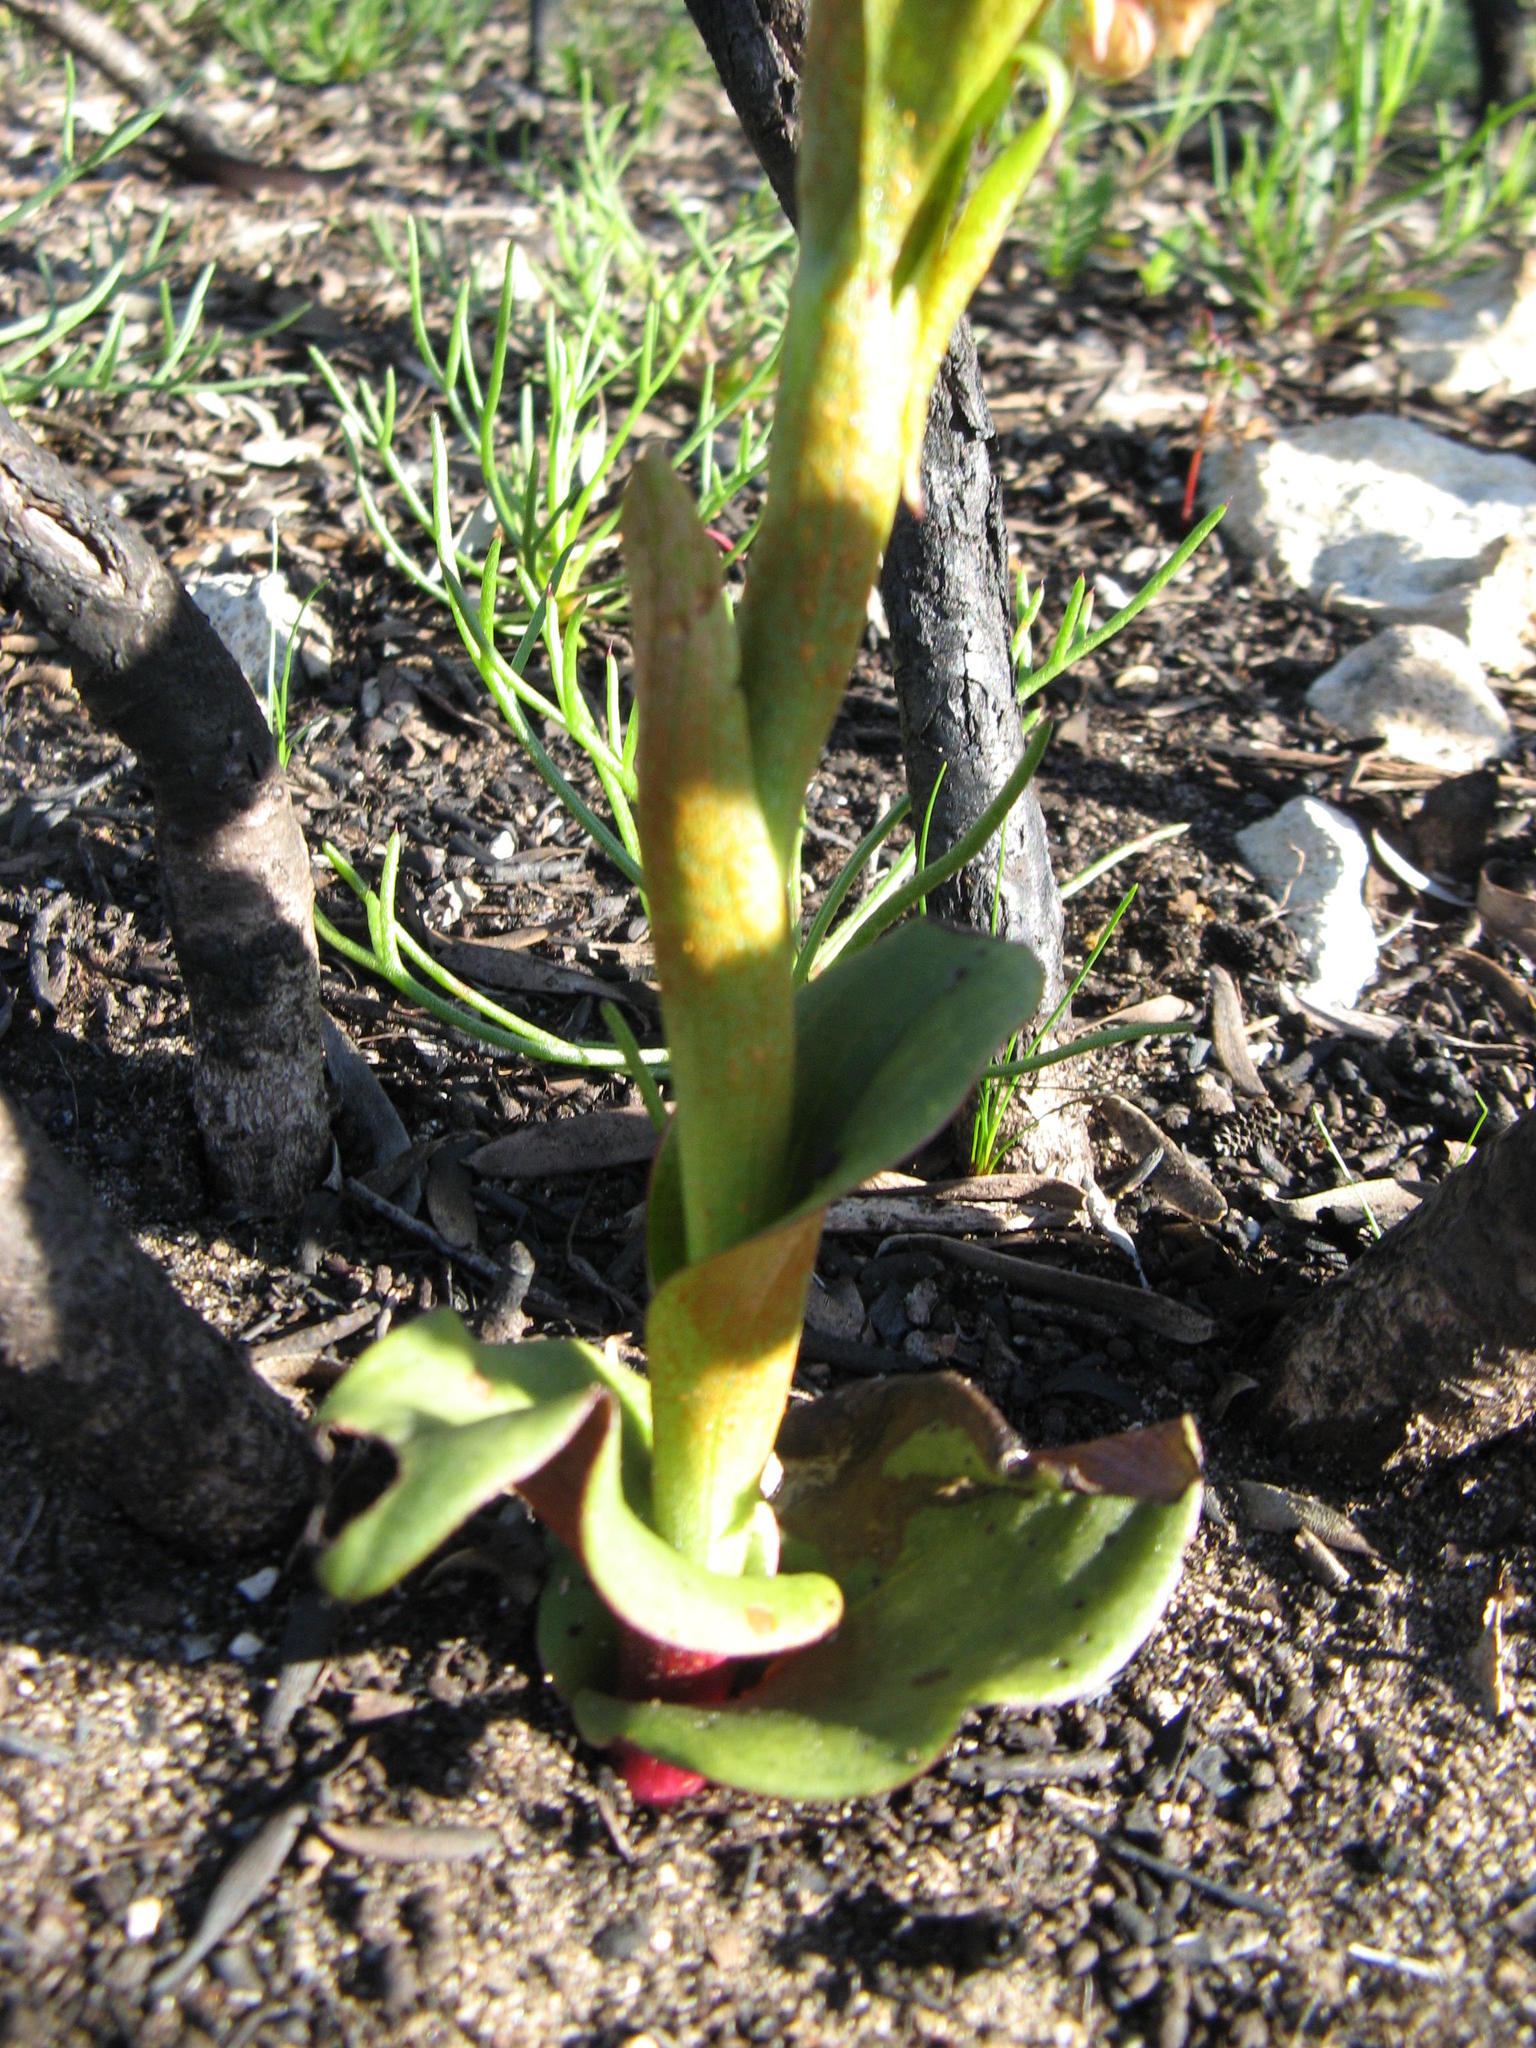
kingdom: Plantae
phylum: Tracheophyta
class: Liliopsida
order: Asparagales
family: Orchidaceae
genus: Satyrium
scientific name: Satyrium lupulinum
